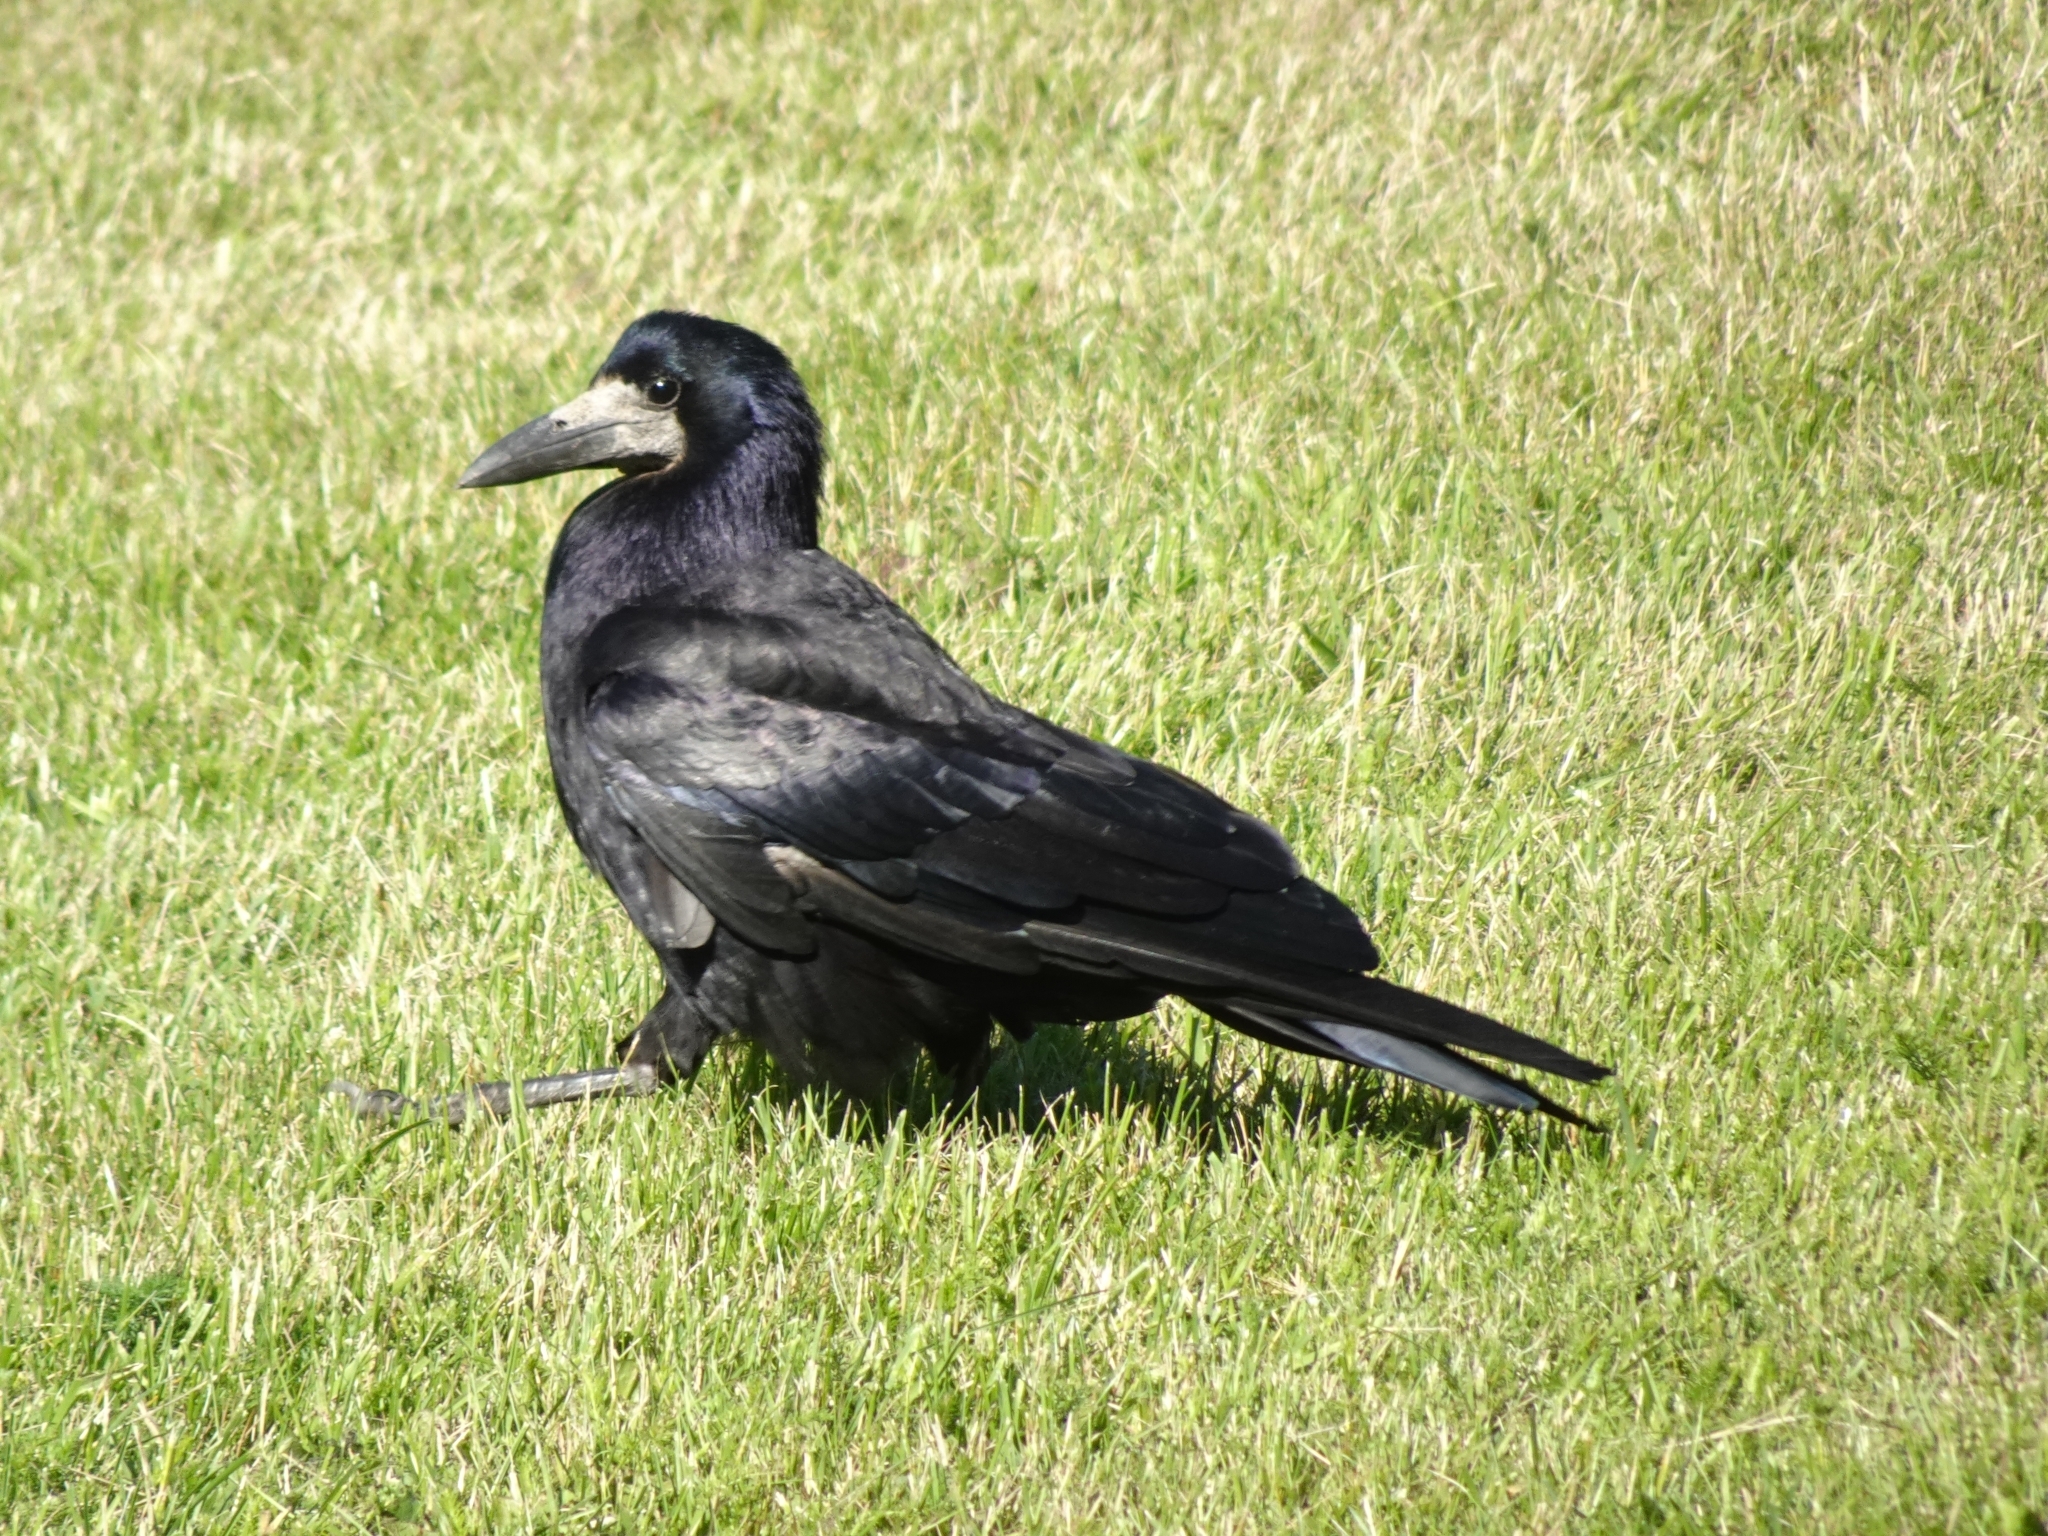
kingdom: Animalia
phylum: Chordata
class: Aves
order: Passeriformes
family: Corvidae
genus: Corvus
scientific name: Corvus frugilegus
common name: Rook
